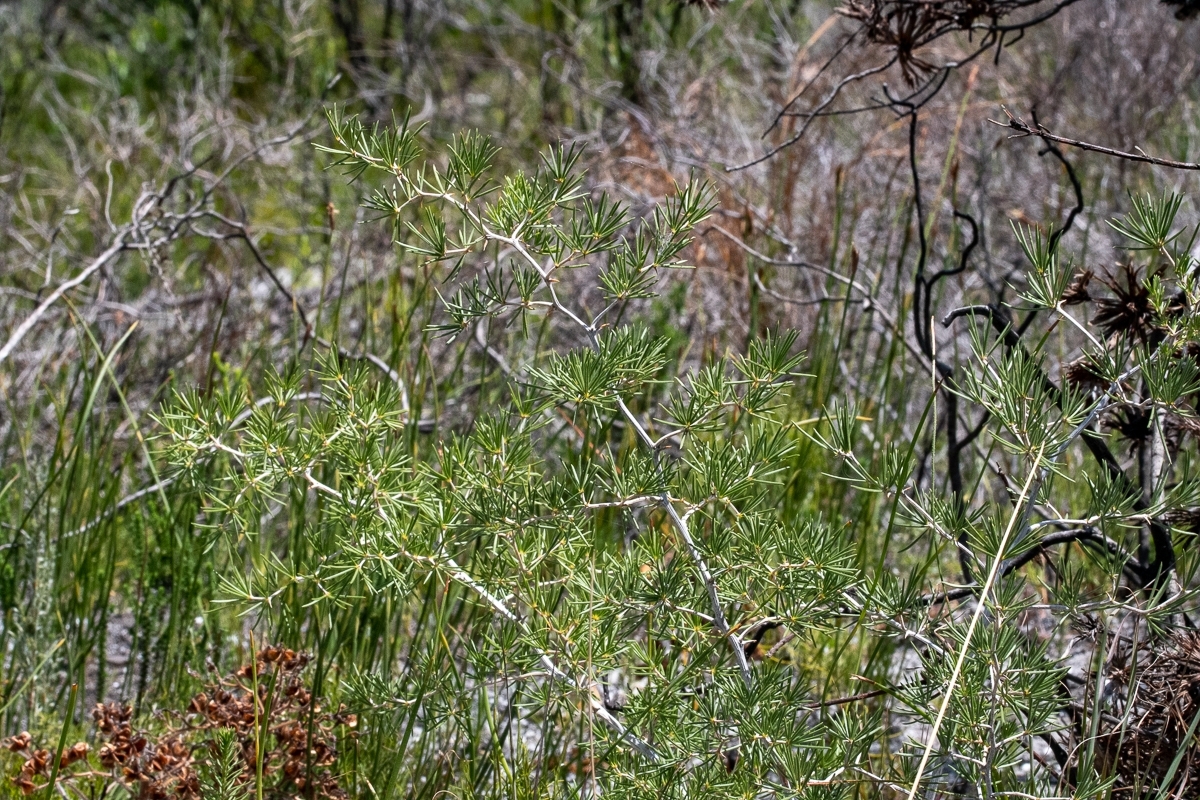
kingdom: Plantae
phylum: Tracheophyta
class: Liliopsida
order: Asparagales
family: Asparagaceae
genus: Asparagus
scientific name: Asparagus lignosus
